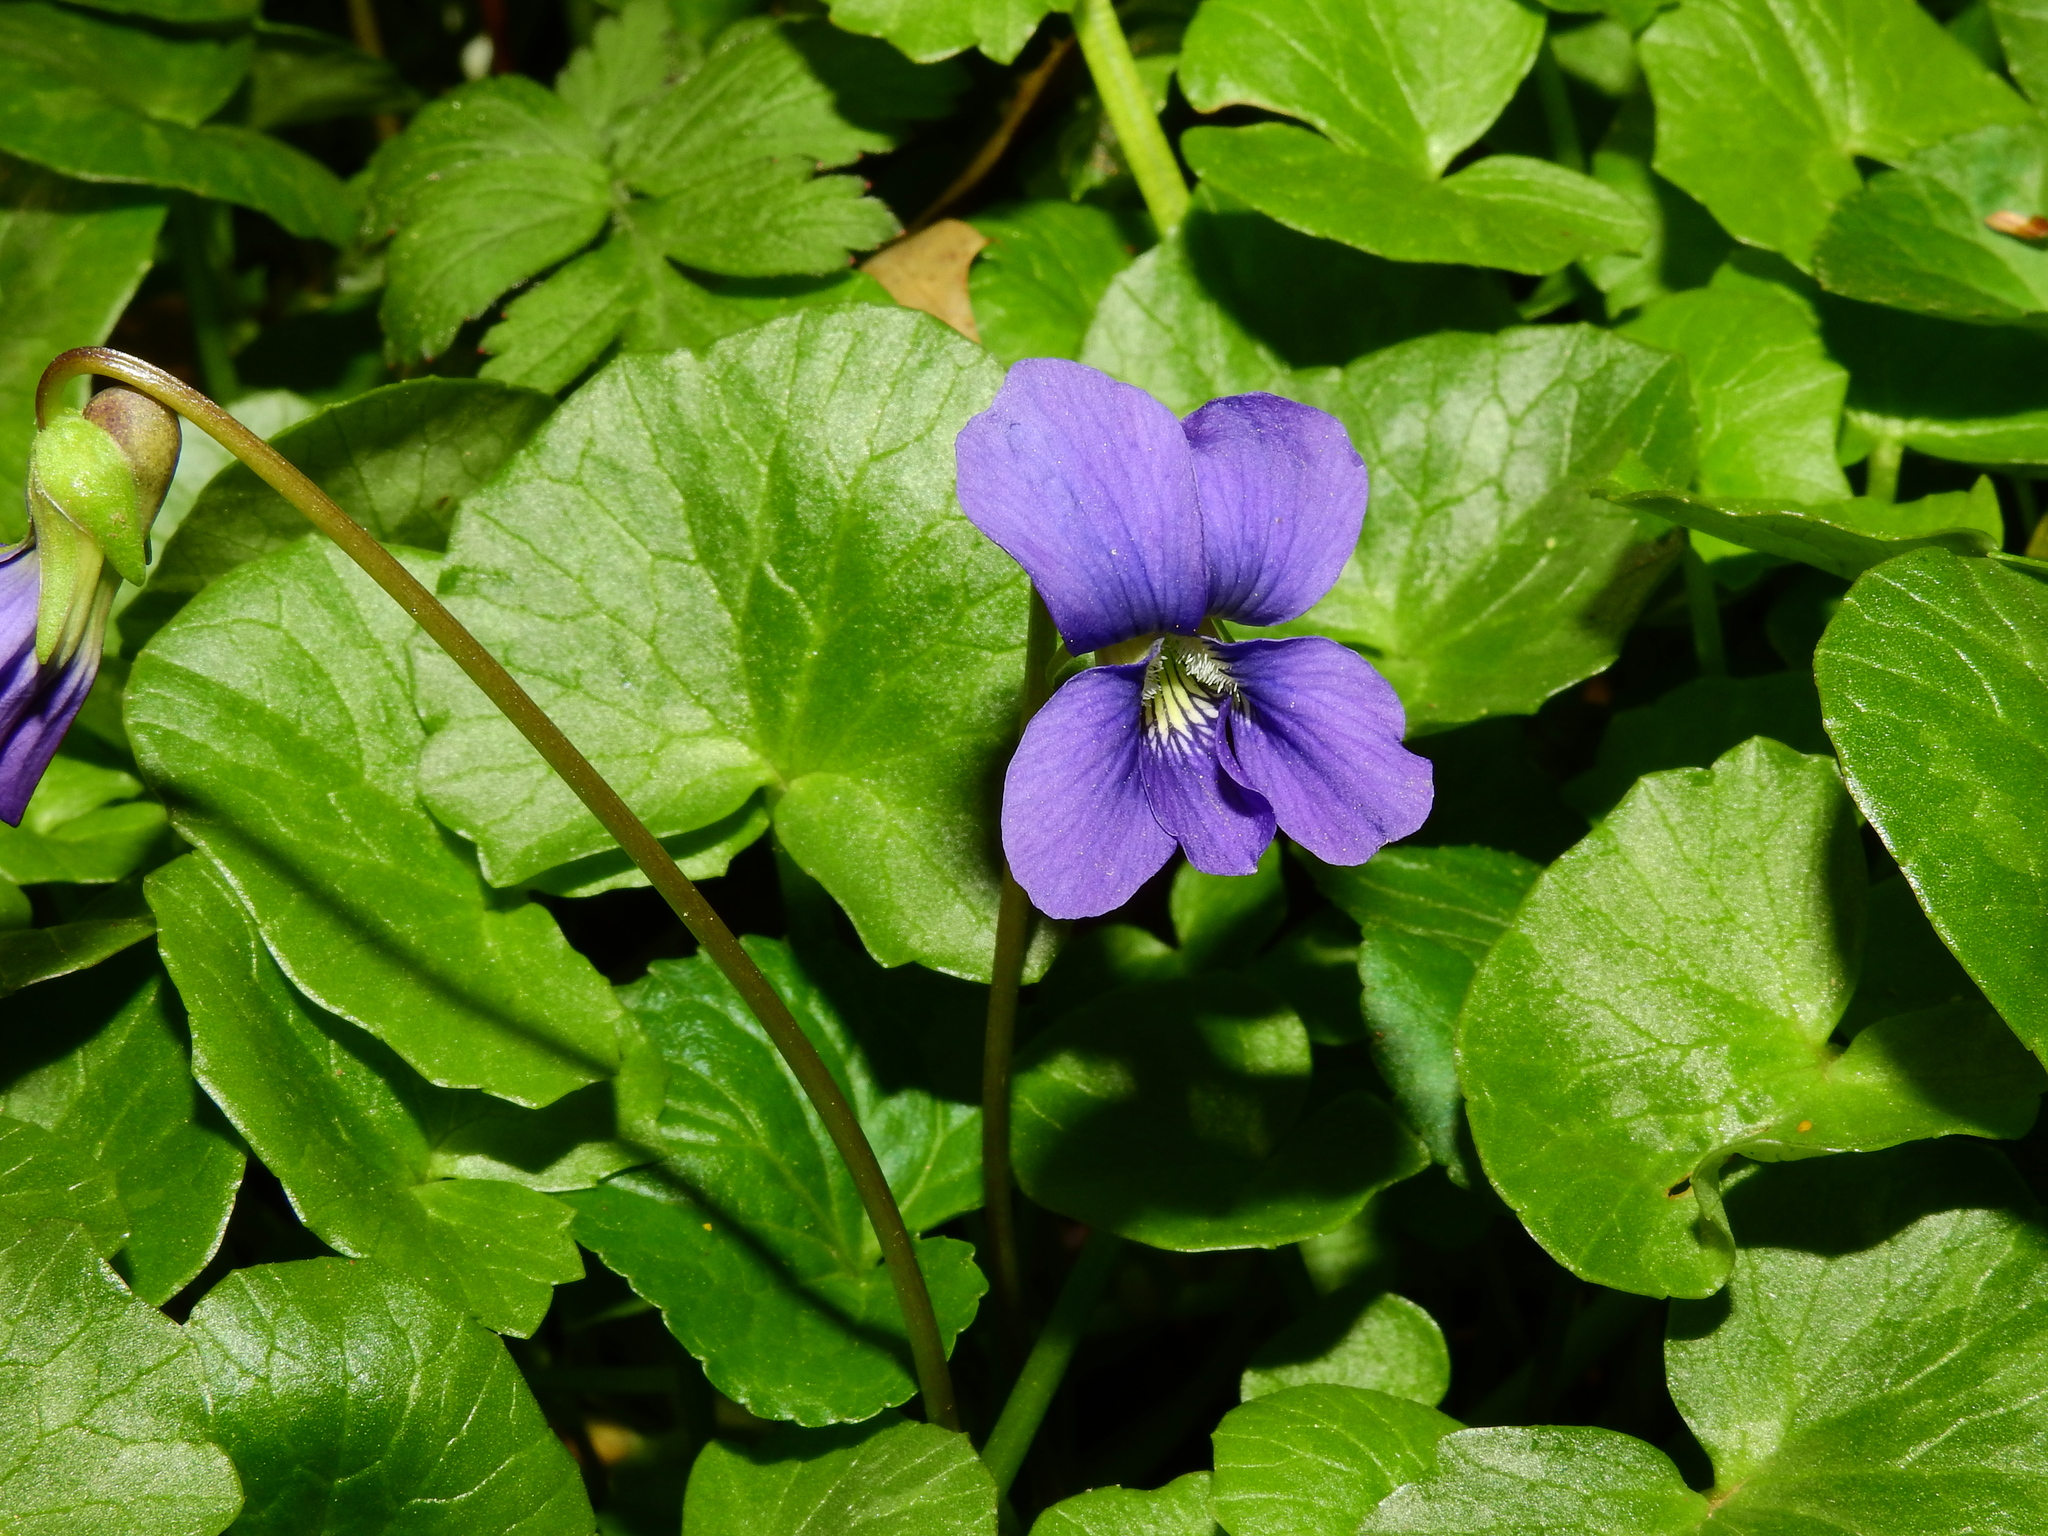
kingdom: Plantae
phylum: Tracheophyta
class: Magnoliopsida
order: Malpighiales
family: Violaceae
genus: Viola
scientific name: Viola sororia
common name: Dooryard violet
